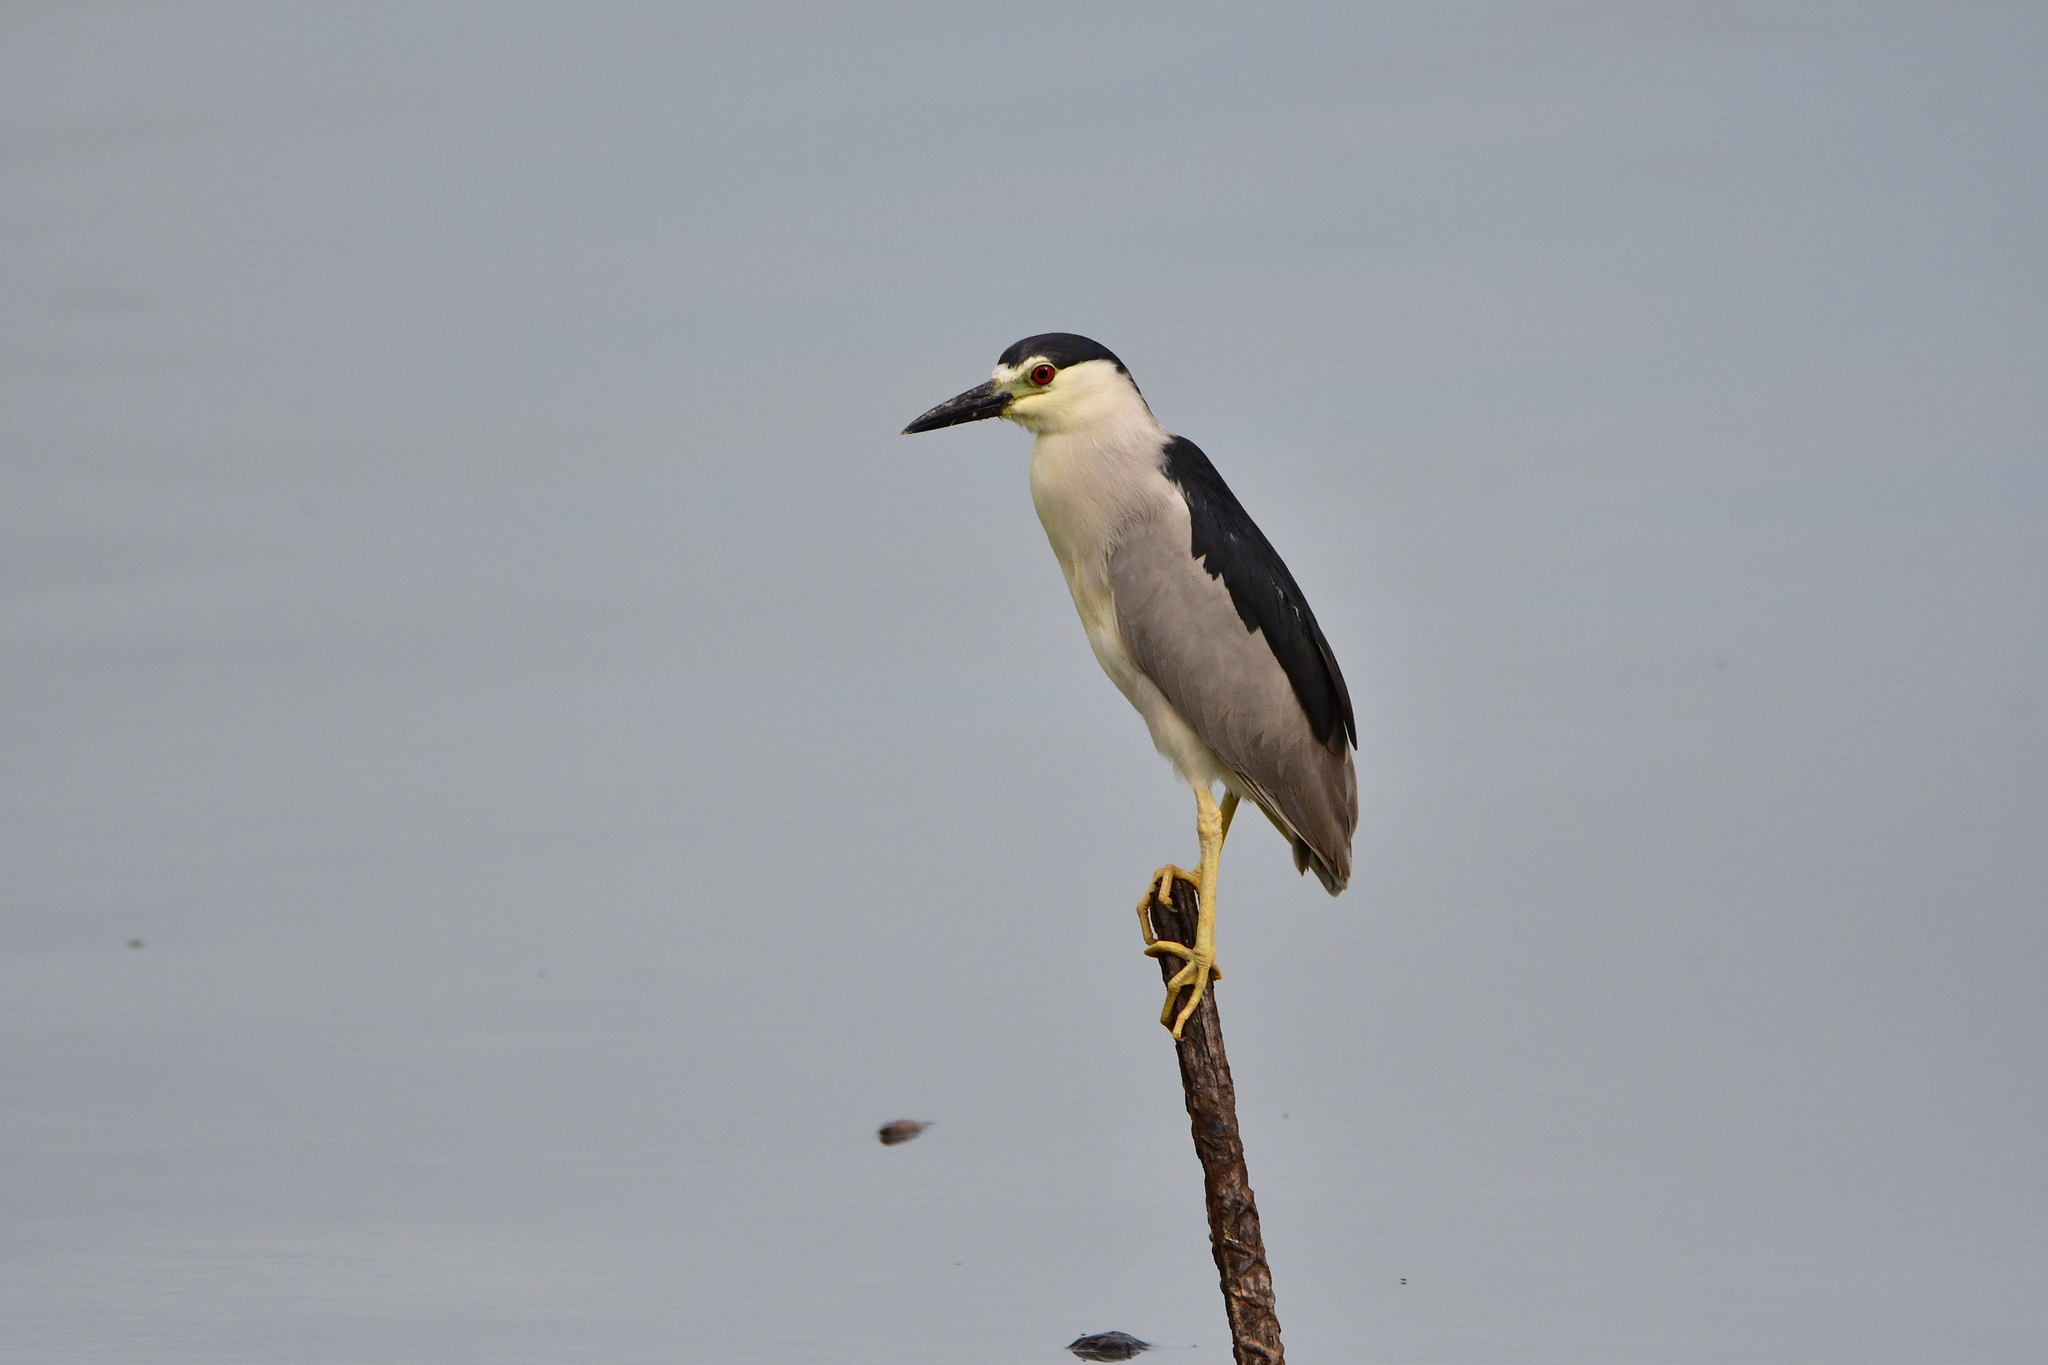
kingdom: Animalia
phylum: Chordata
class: Aves
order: Pelecaniformes
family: Ardeidae
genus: Nycticorax
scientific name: Nycticorax nycticorax
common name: Black-crowned night heron
